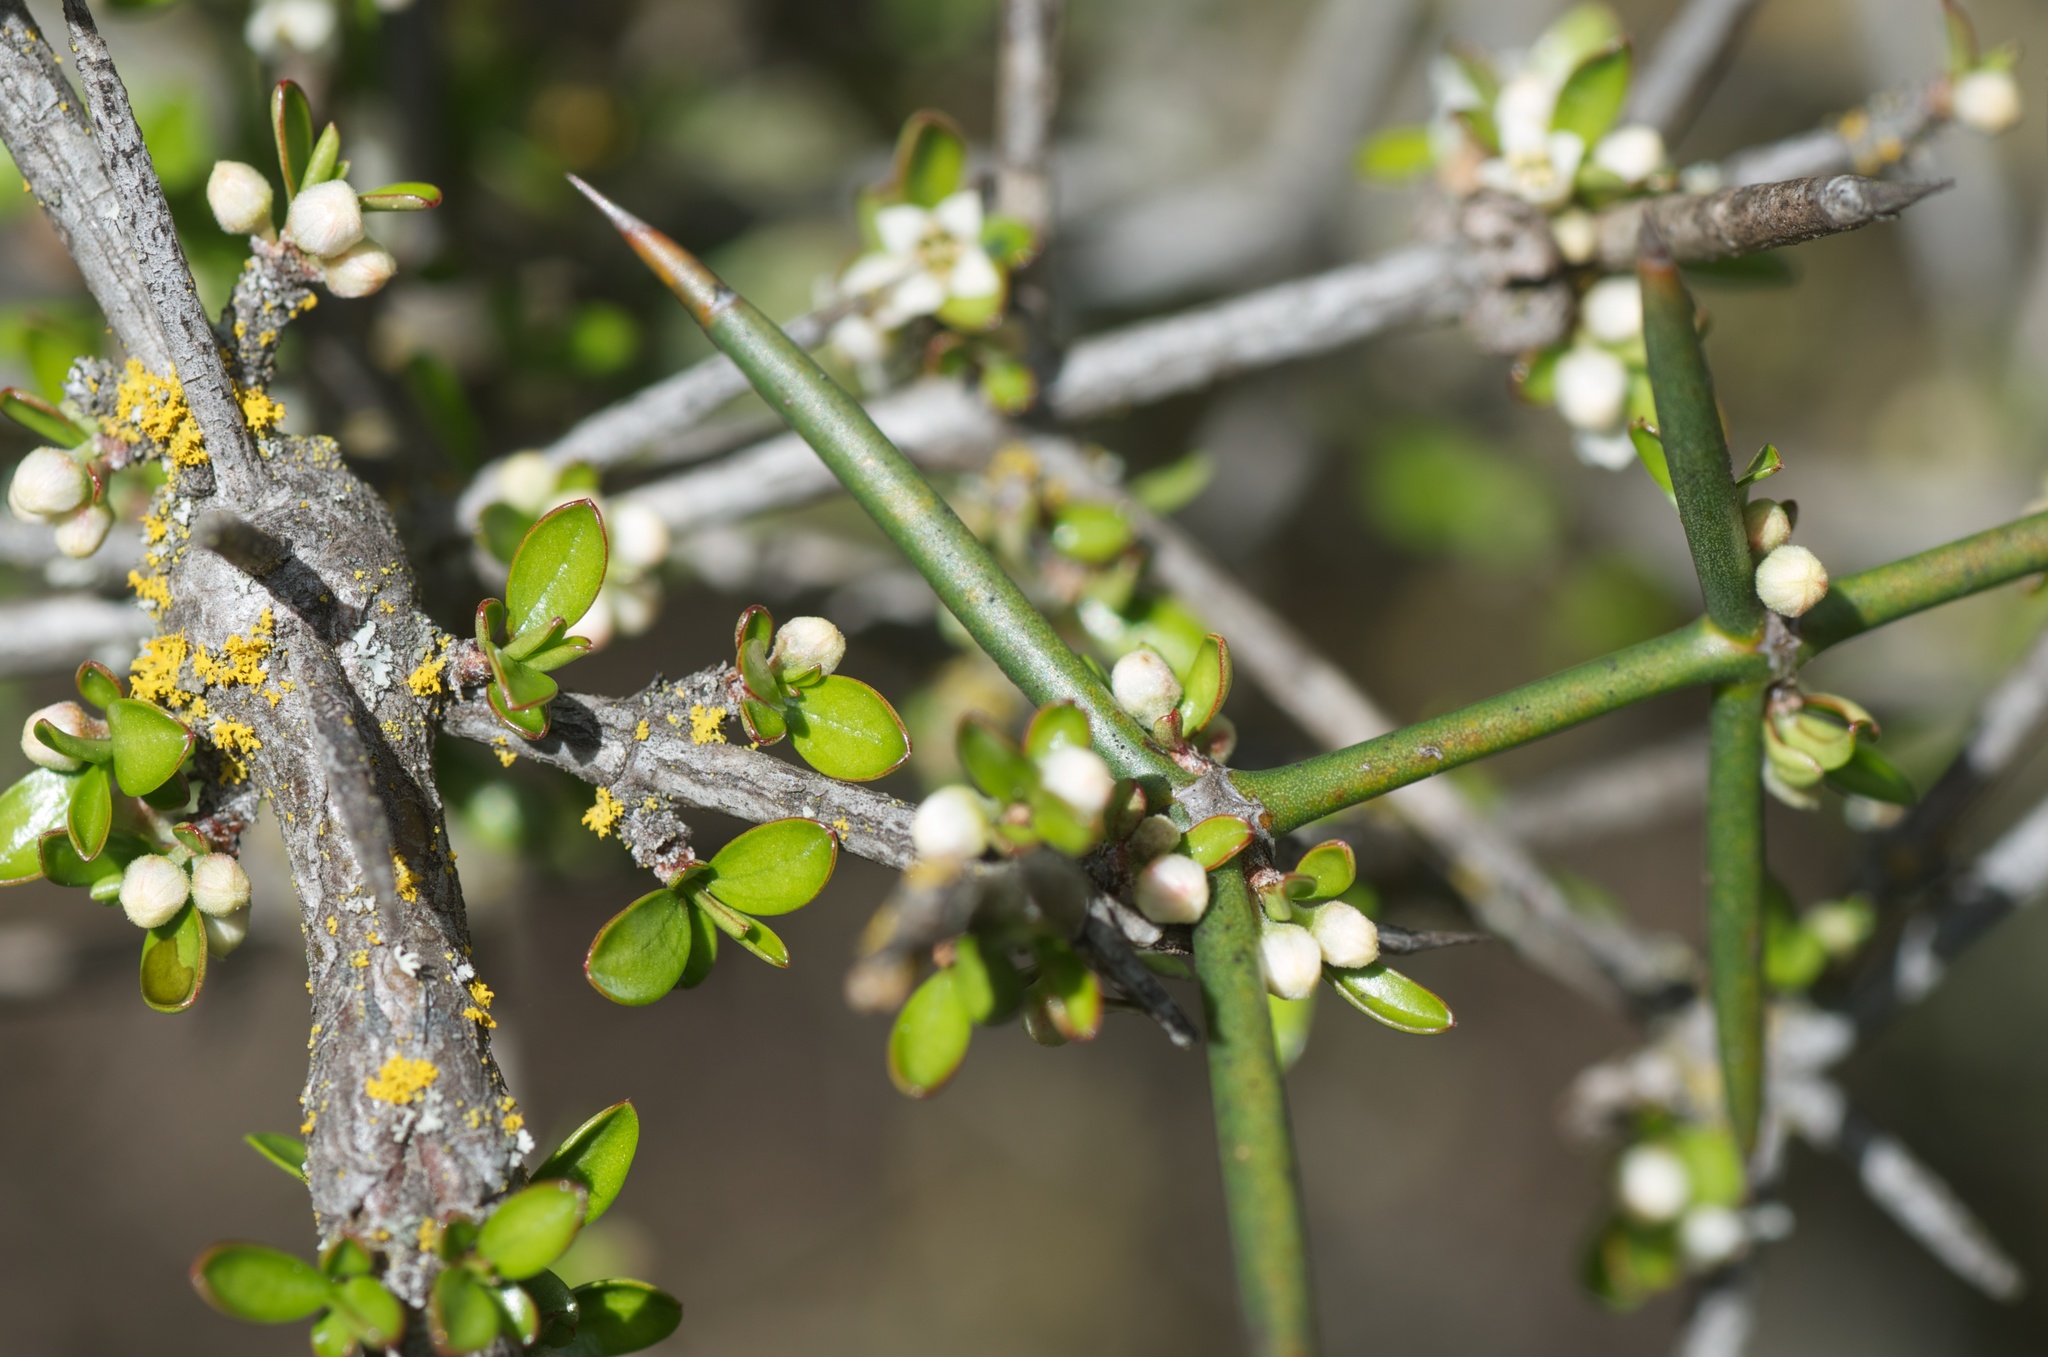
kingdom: Plantae
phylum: Tracheophyta
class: Magnoliopsida
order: Rosales
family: Rhamnaceae
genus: Discaria
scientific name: Discaria toumatou
